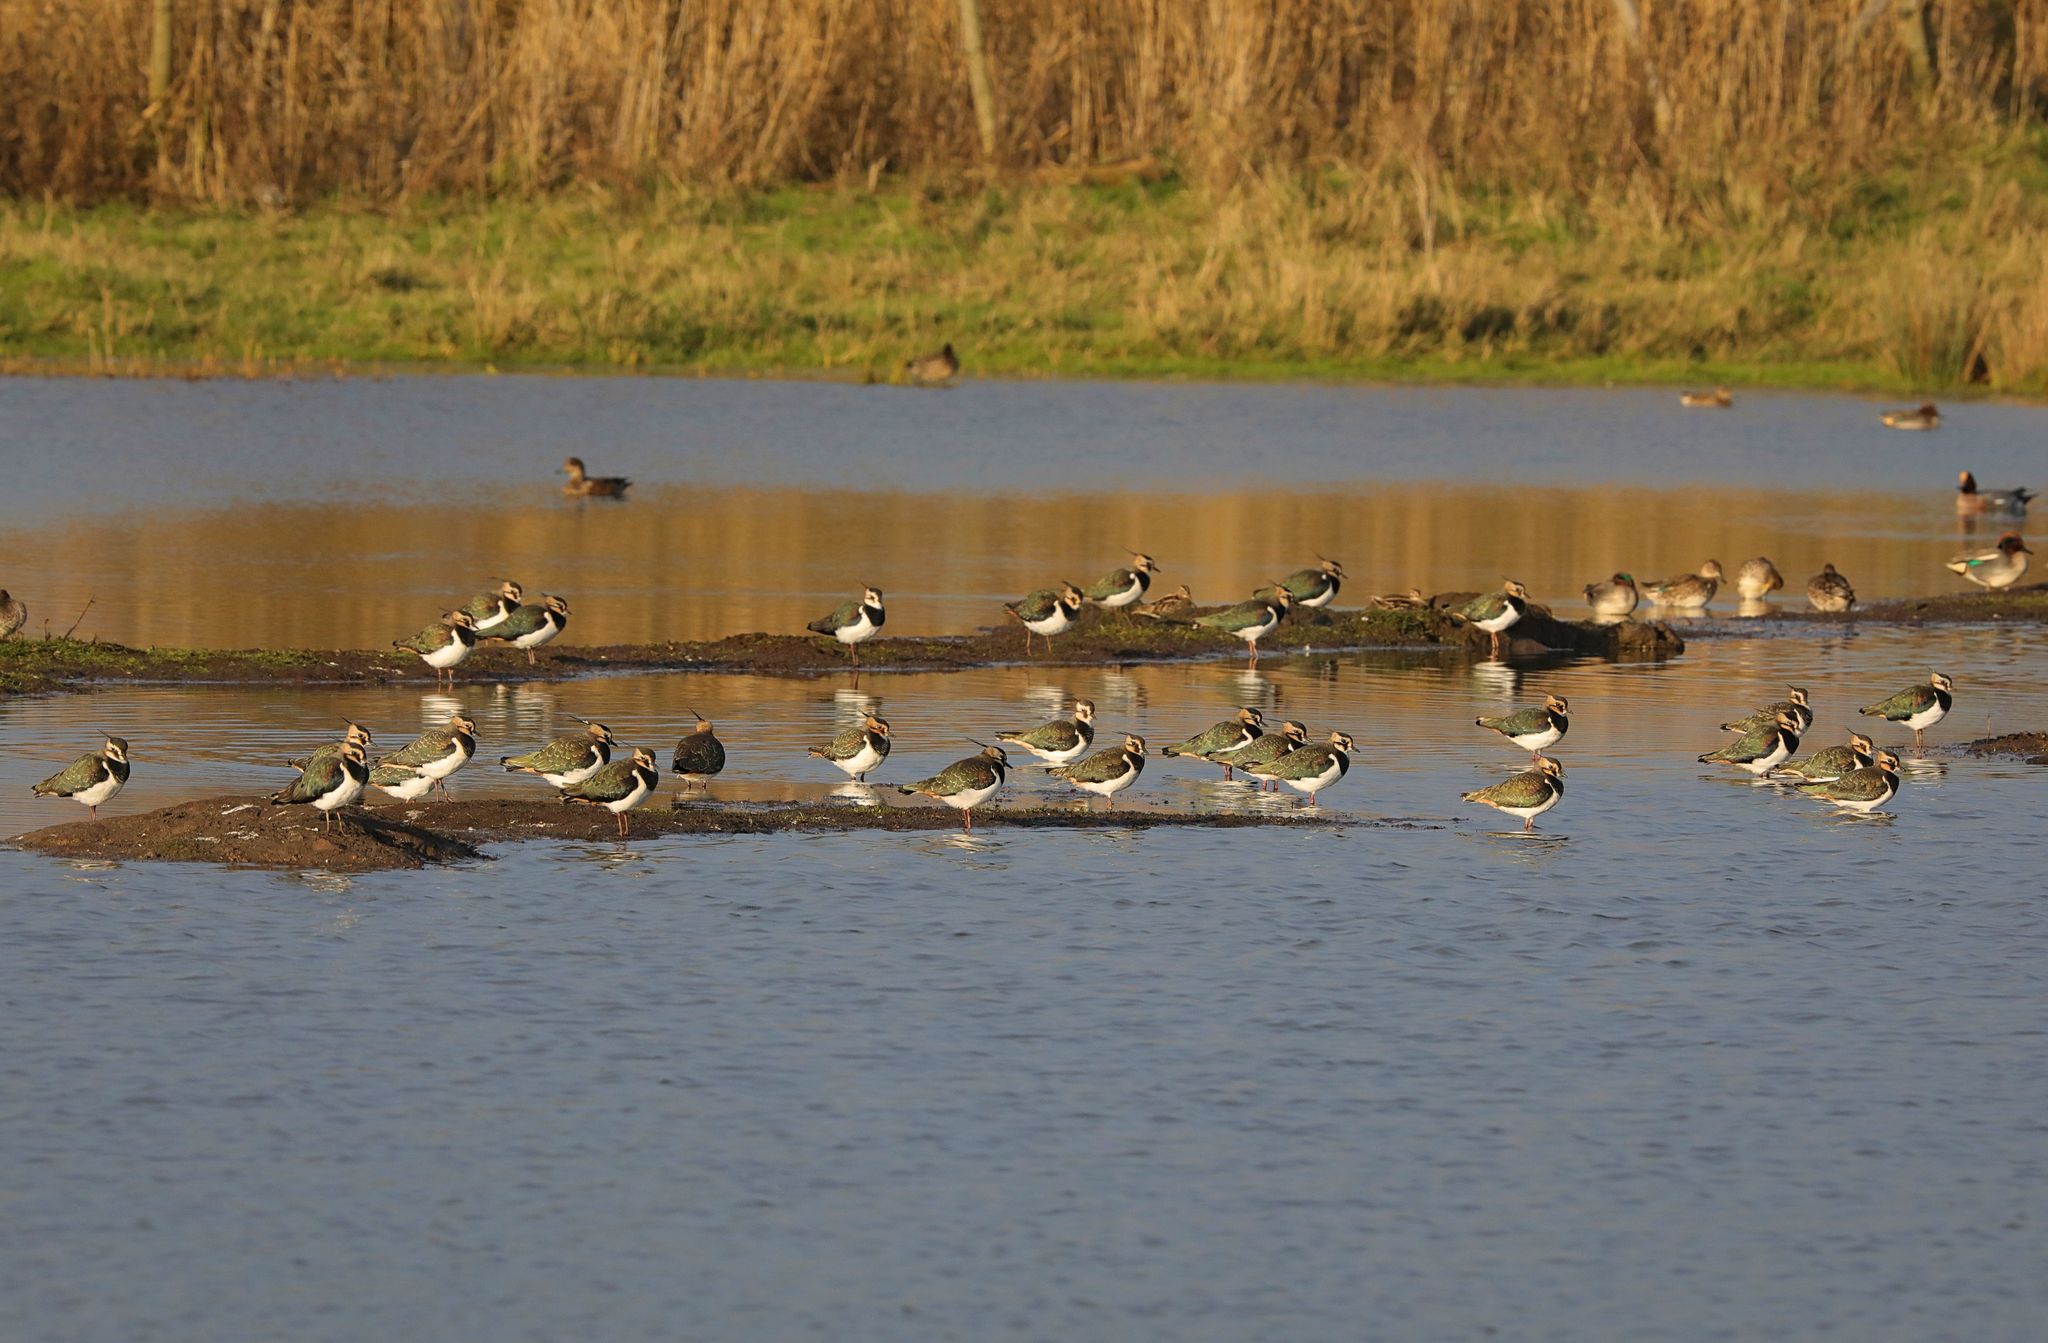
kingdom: Animalia
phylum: Chordata
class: Aves
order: Charadriiformes
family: Charadriidae
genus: Vanellus
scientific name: Vanellus vanellus
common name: Northern lapwing
